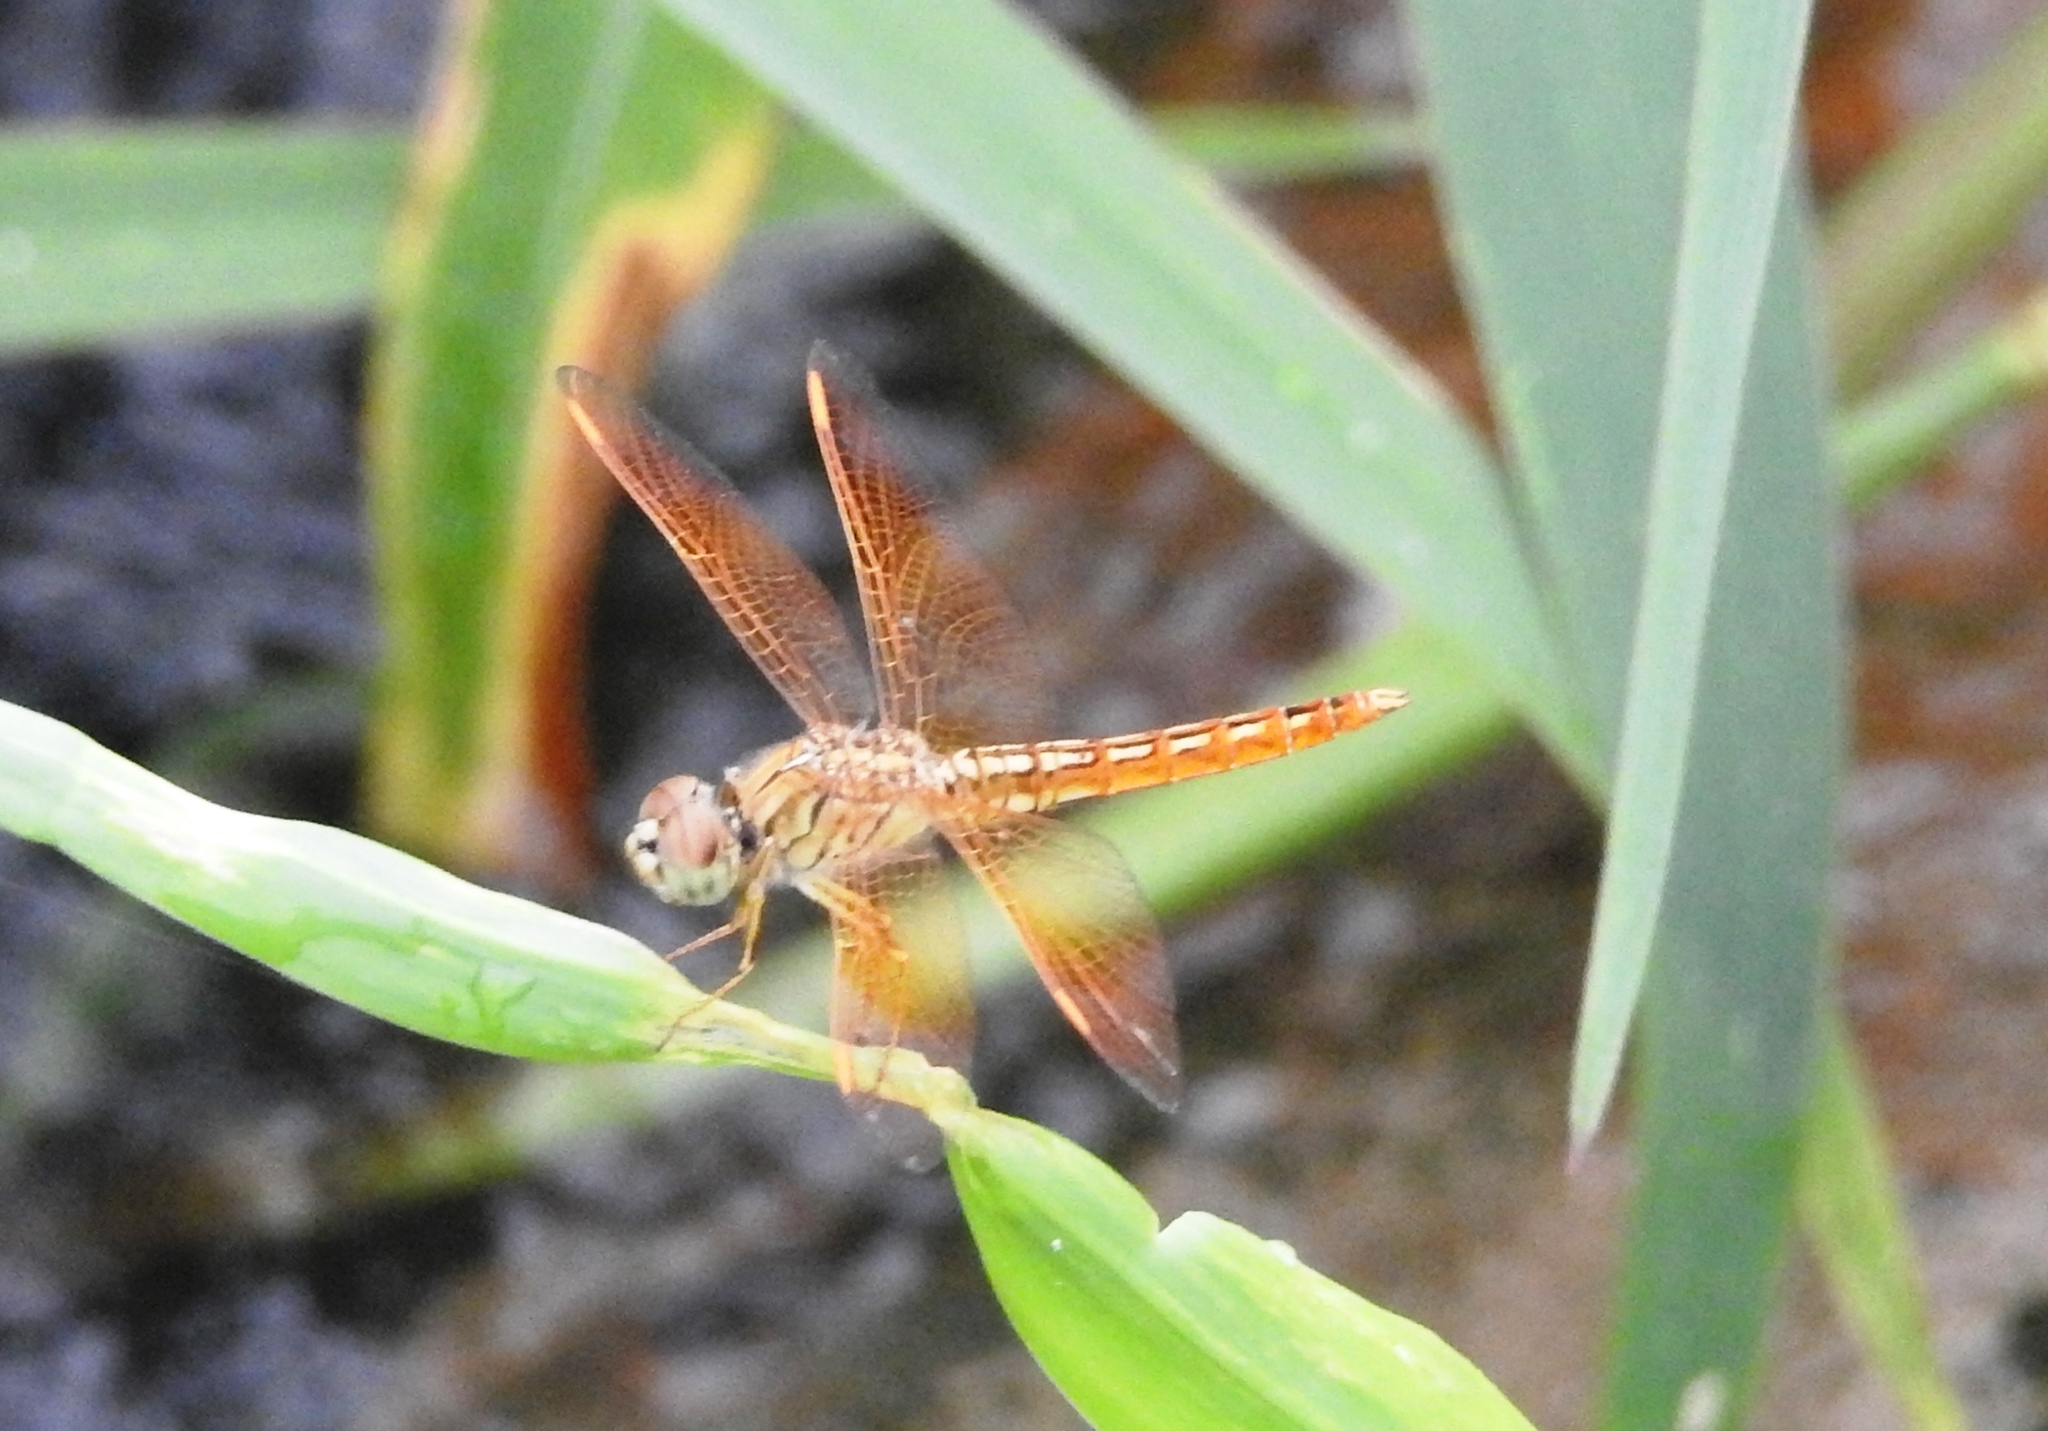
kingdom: Animalia
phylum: Arthropoda
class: Insecta
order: Odonata
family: Libellulidae
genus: Brachythemis
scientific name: Brachythemis contaminata
